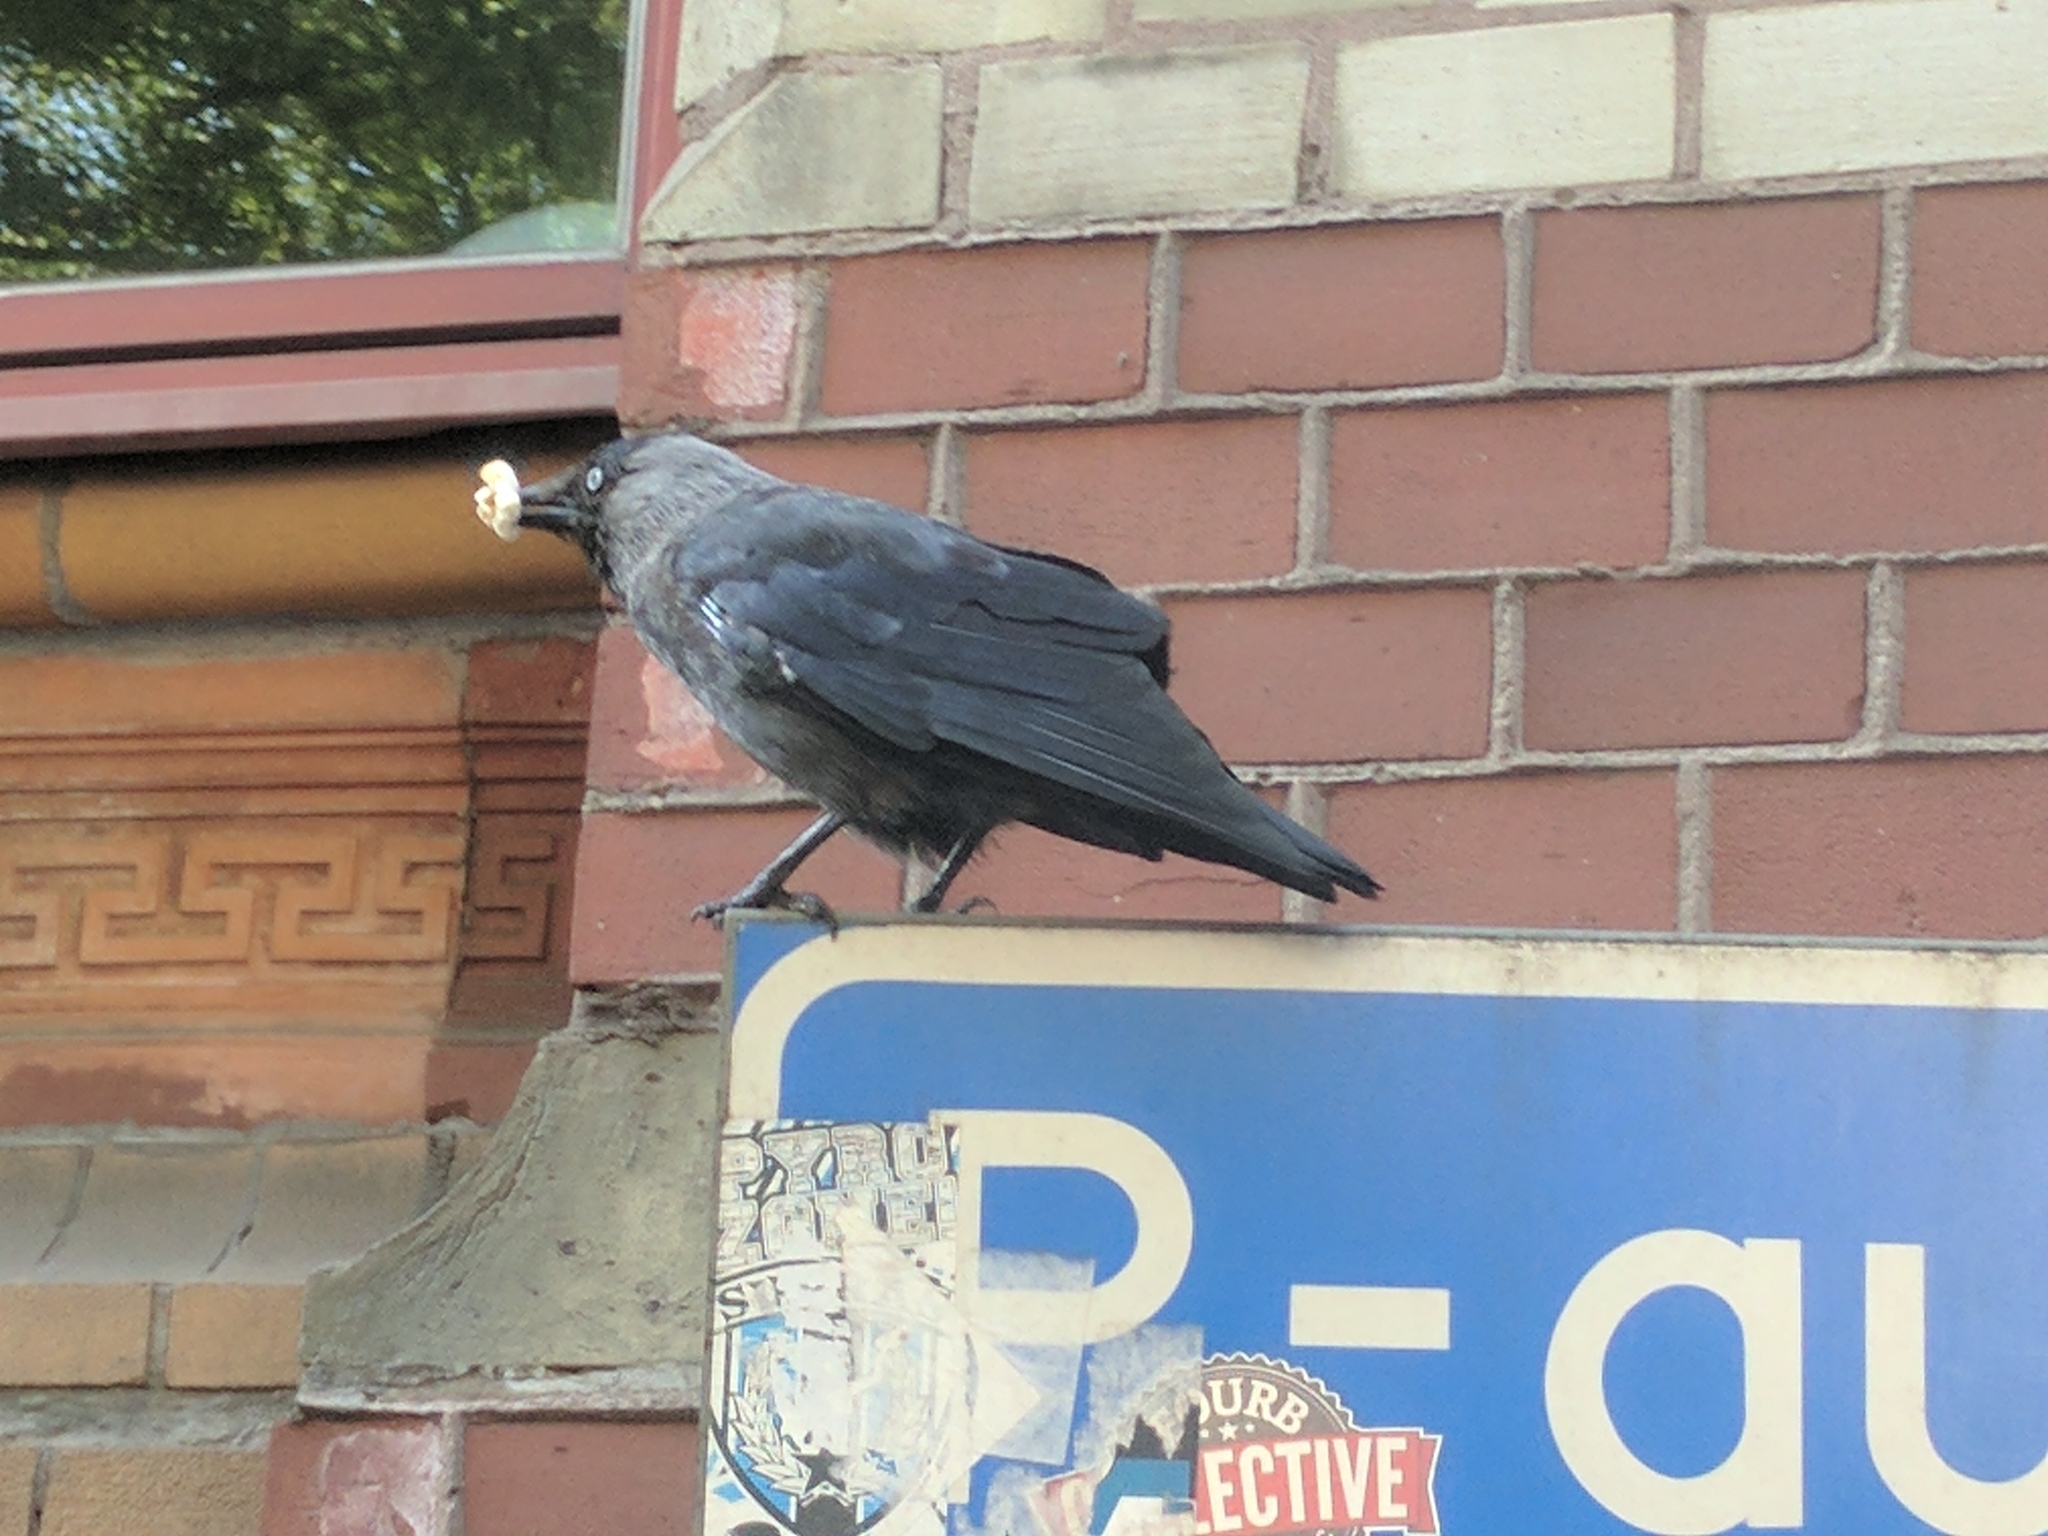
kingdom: Animalia
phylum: Chordata
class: Aves
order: Passeriformes
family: Corvidae
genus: Coloeus
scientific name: Coloeus monedula
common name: Western jackdaw
